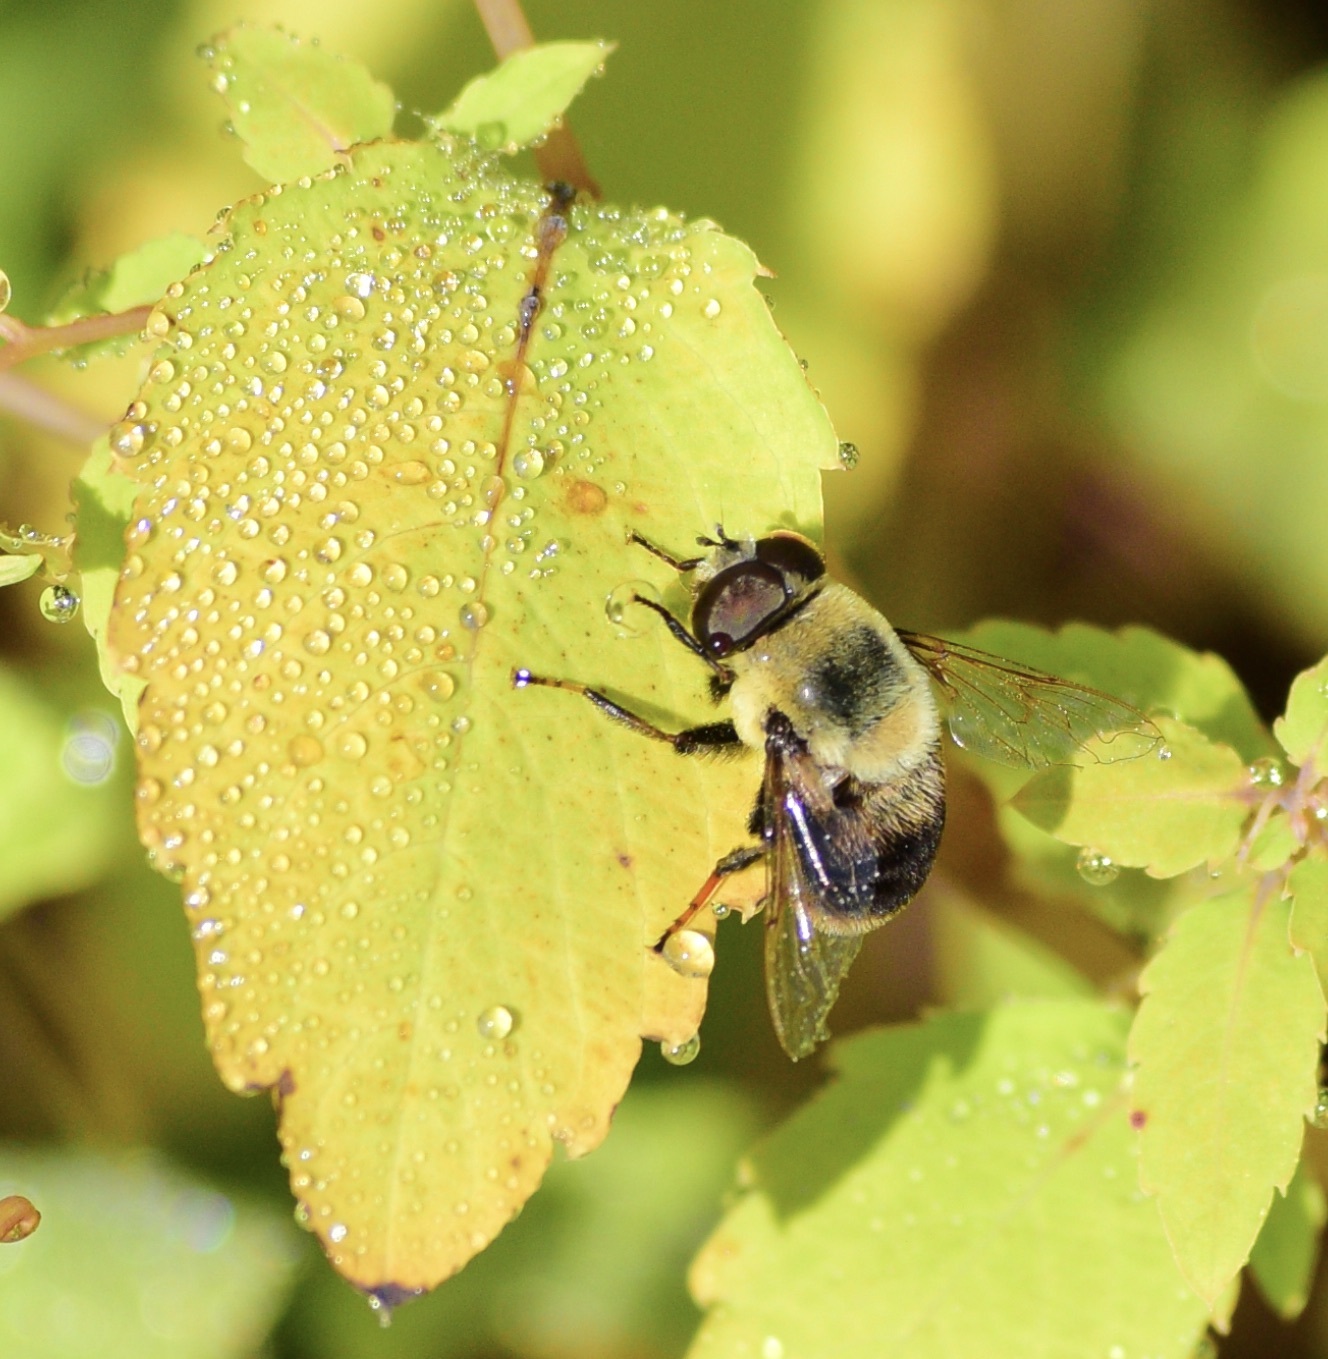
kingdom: Animalia
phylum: Arthropoda
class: Insecta
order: Diptera
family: Syrphidae
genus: Eristalis
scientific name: Eristalis flavipes
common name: Orange-legged drone fly
